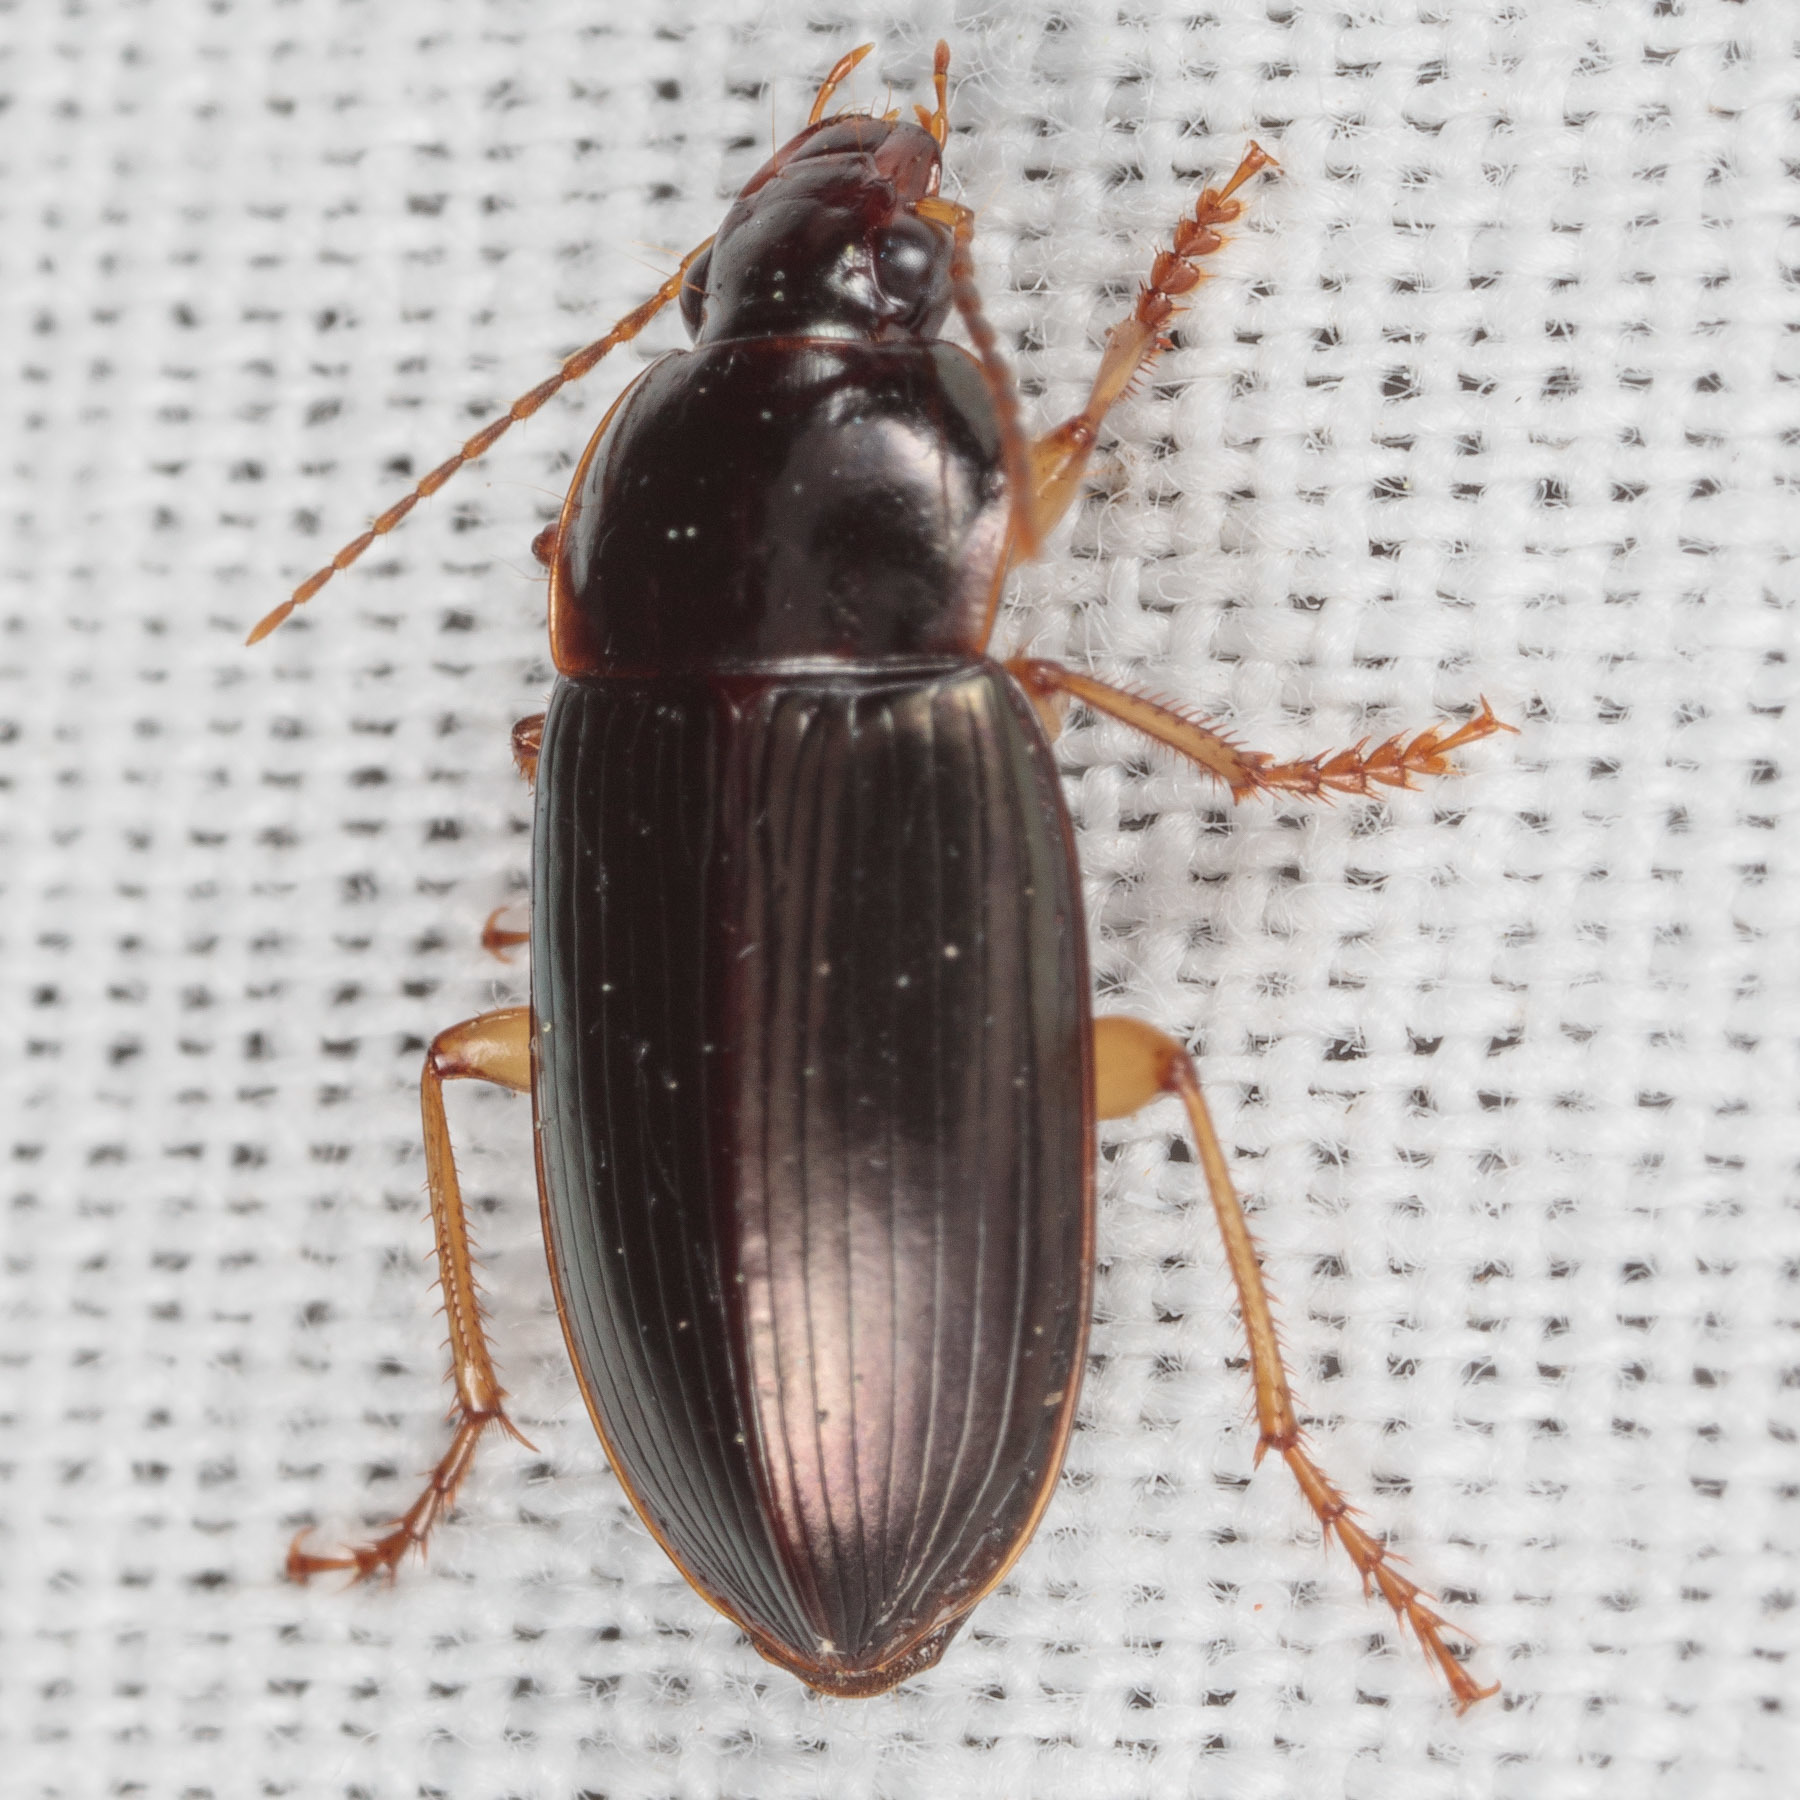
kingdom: Animalia
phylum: Arthropoda
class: Insecta
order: Coleoptera
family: Carabidae
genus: Notiobia
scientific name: Notiobia terminata
